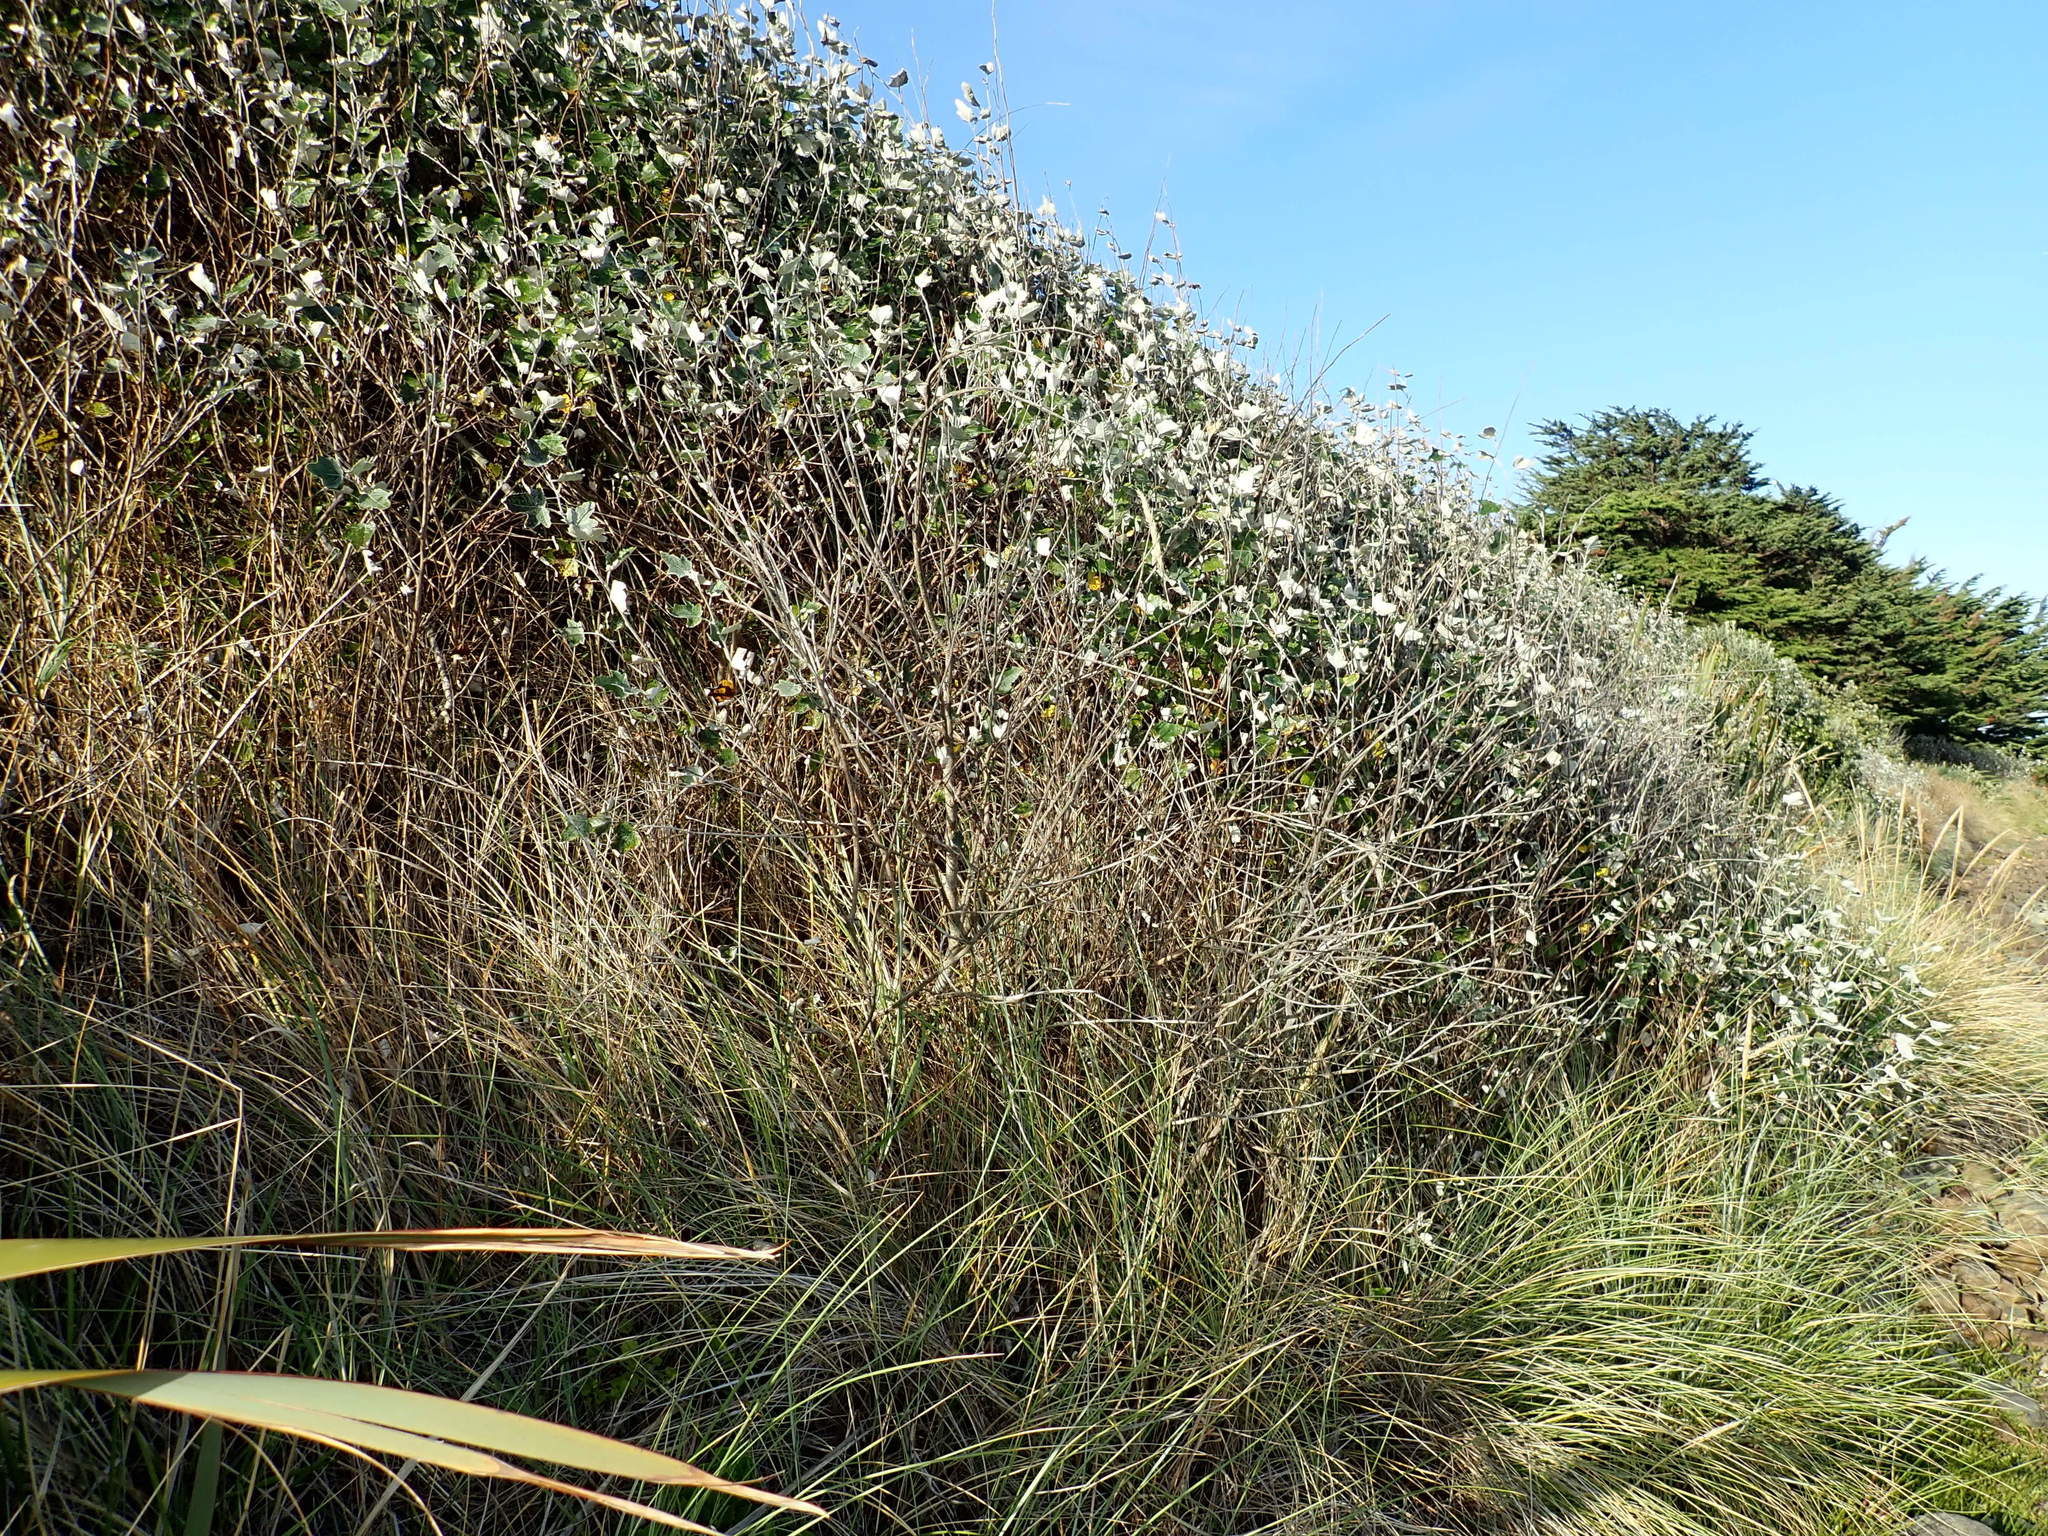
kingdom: Plantae
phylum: Tracheophyta
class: Magnoliopsida
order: Malpighiales
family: Salicaceae
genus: Populus
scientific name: Populus alba
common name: White poplar
